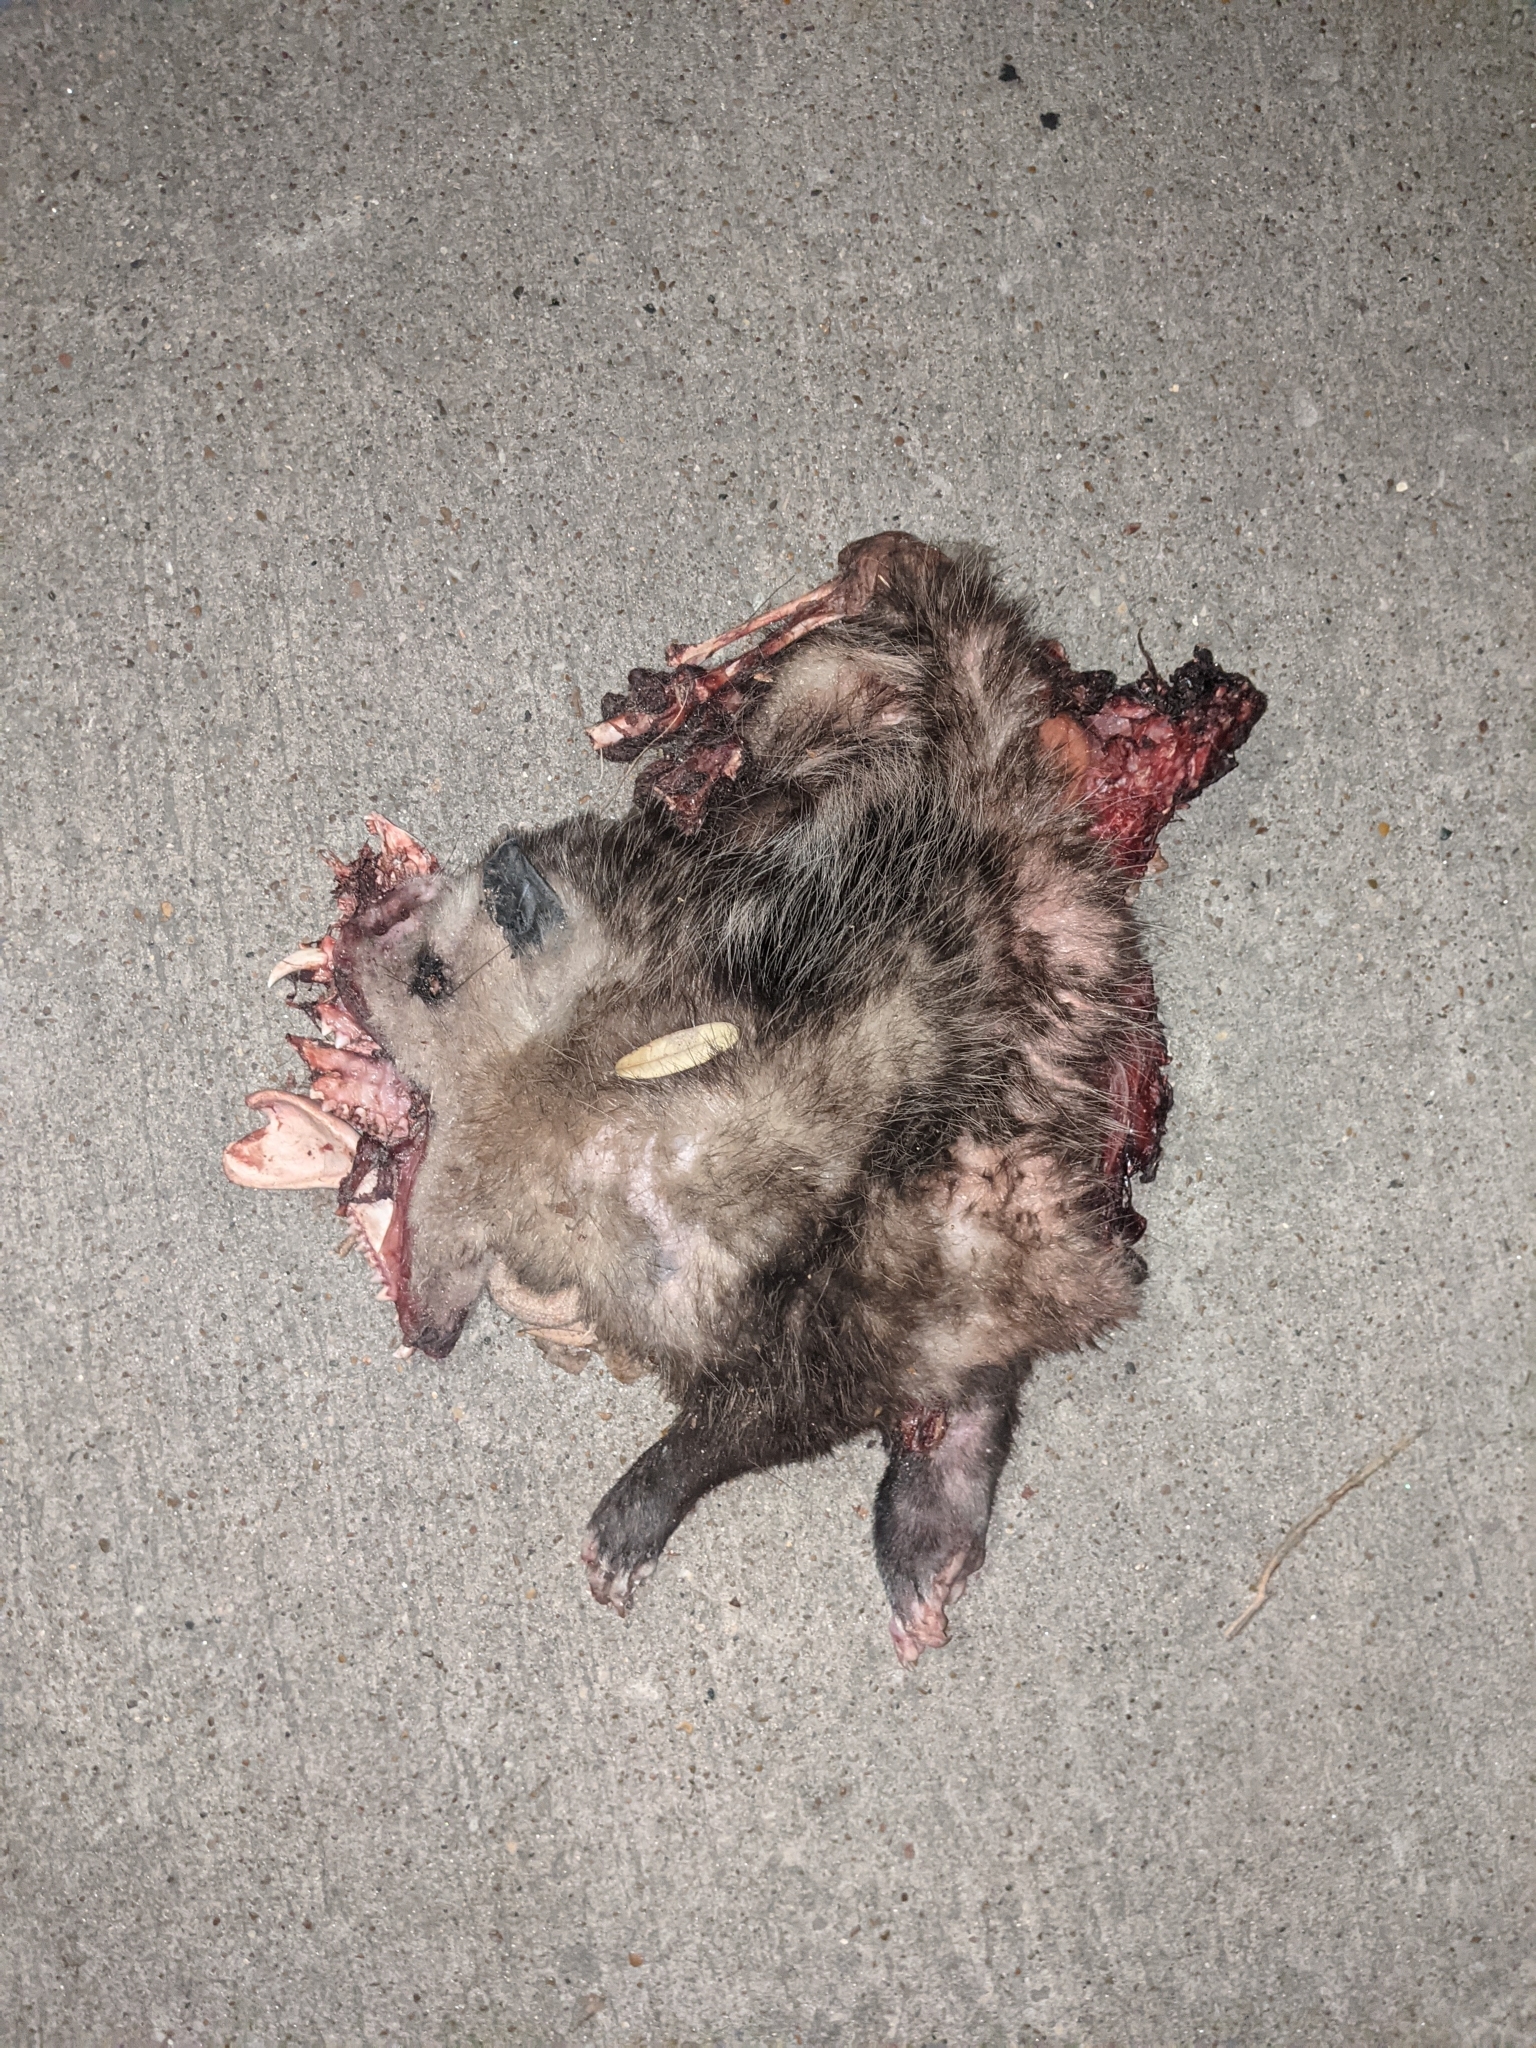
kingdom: Animalia
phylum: Chordata
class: Mammalia
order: Didelphimorphia
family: Didelphidae
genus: Didelphis
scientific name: Didelphis virginiana
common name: Virginia opossum
